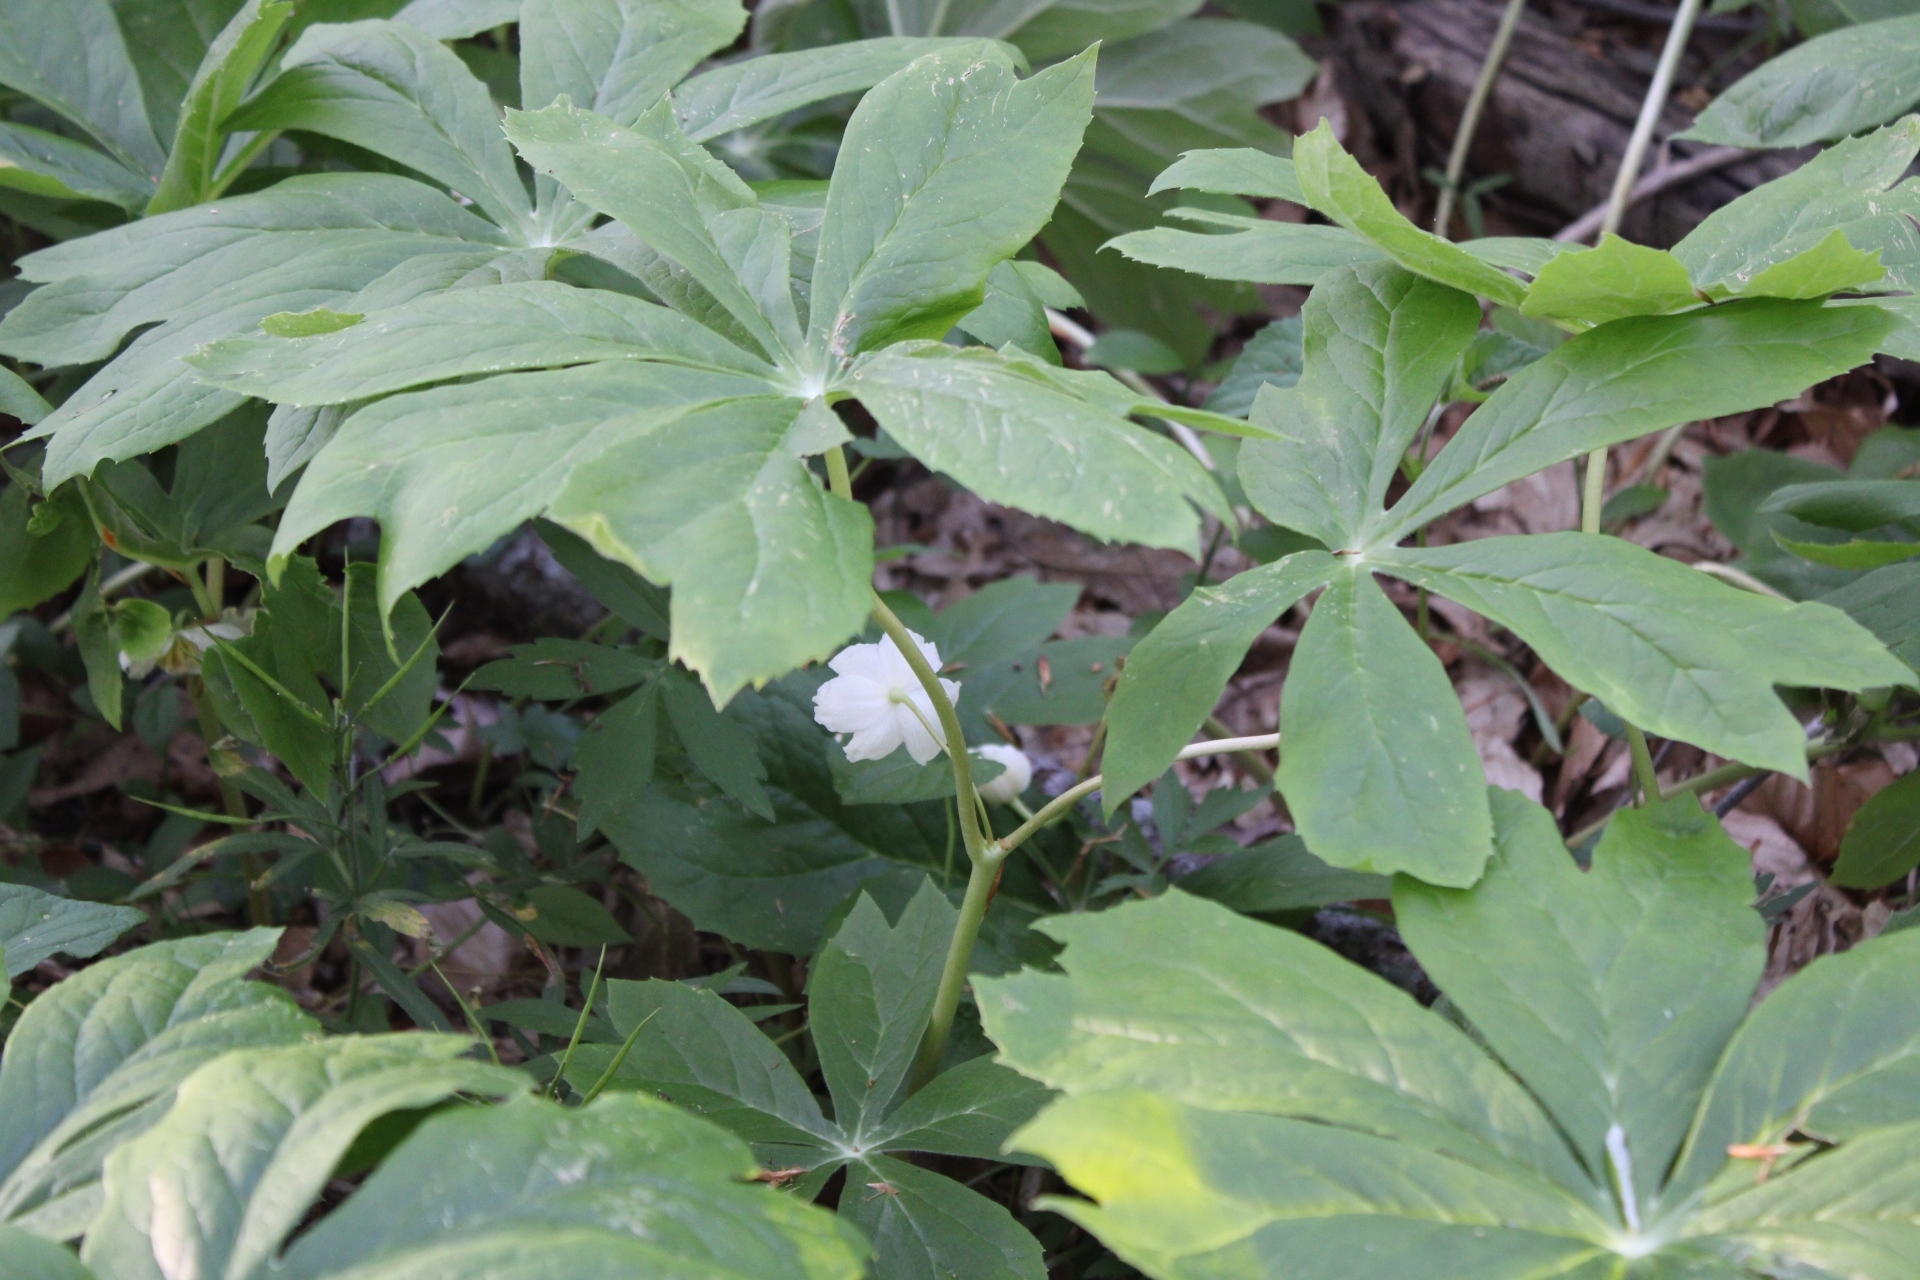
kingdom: Plantae
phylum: Tracheophyta
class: Magnoliopsida
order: Ranunculales
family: Berberidaceae
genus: Podophyllum
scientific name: Podophyllum peltatum
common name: Wild mandrake
